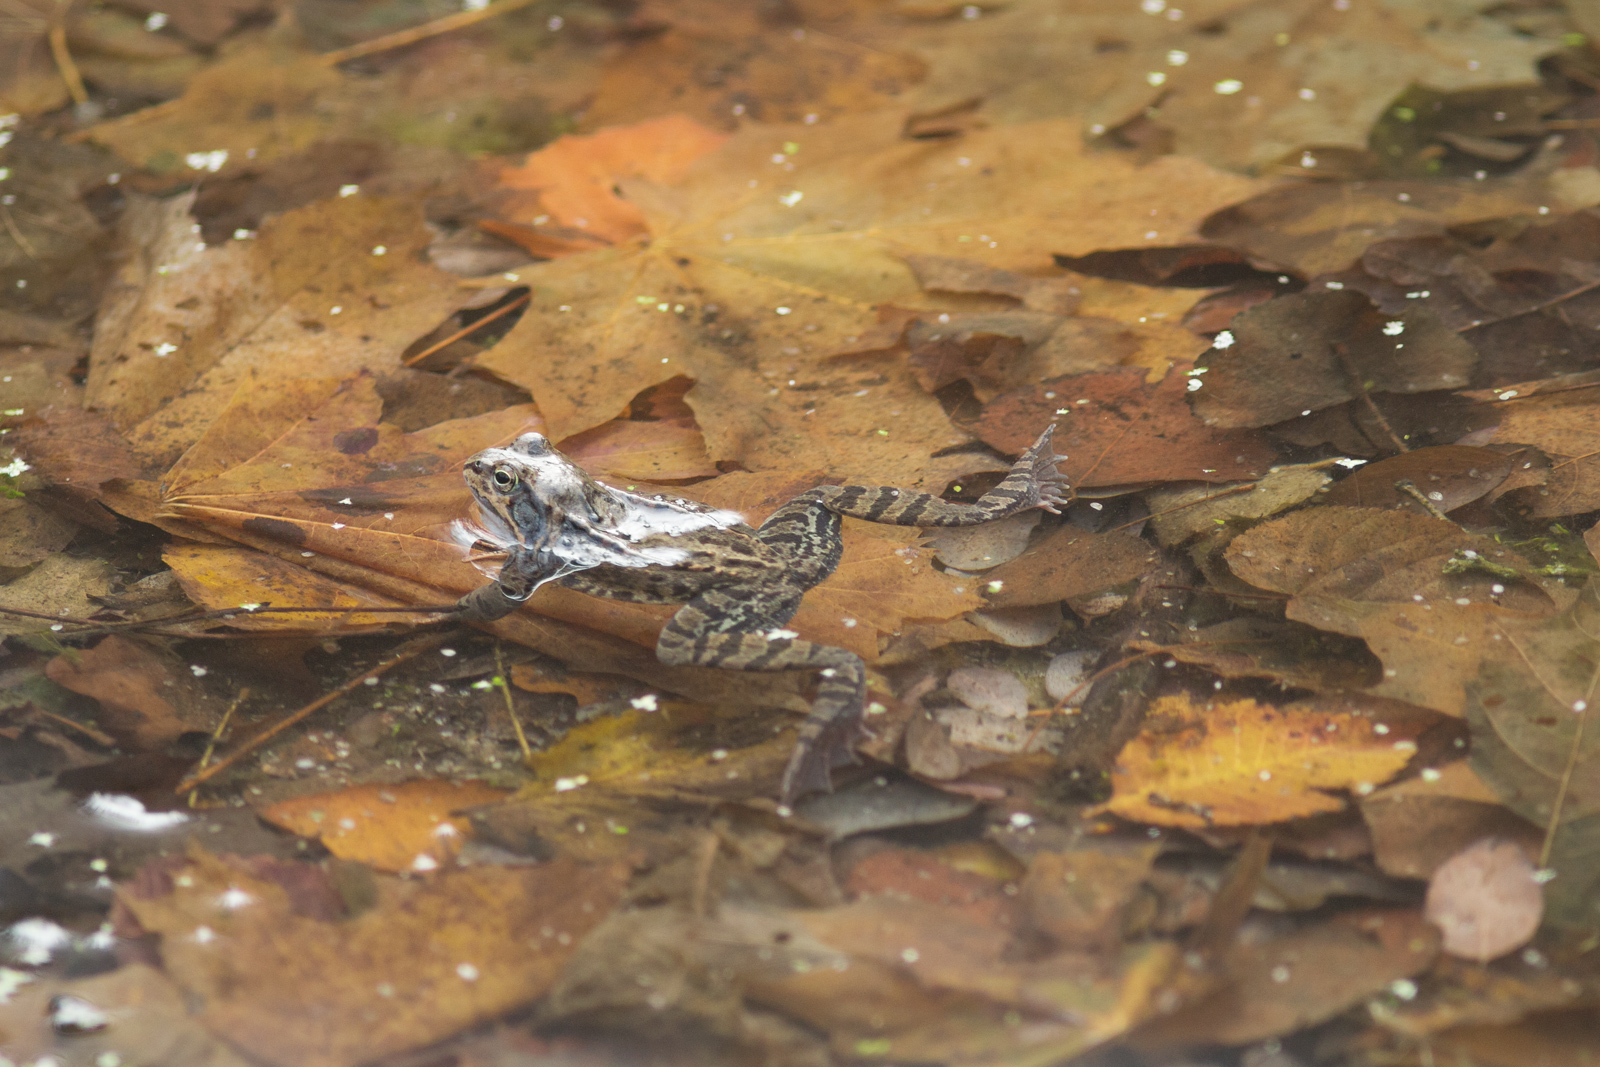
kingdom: Animalia
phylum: Chordata
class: Amphibia
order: Anura
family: Ranidae
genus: Rana
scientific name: Rana temporaria
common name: Common frog
